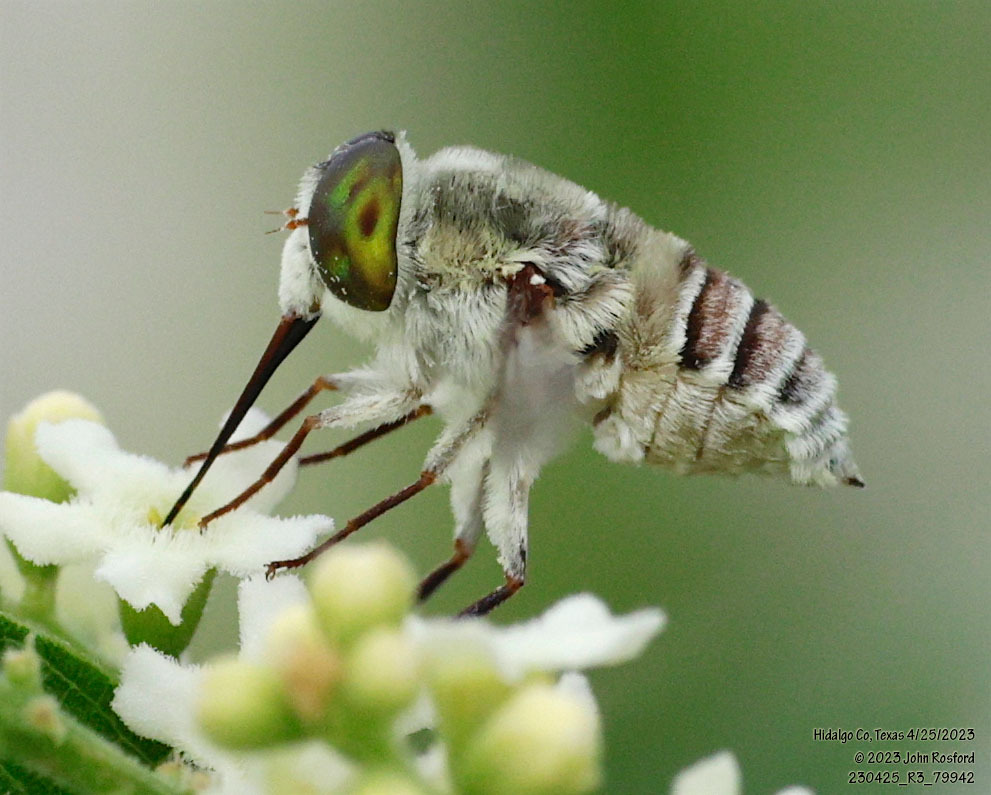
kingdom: Animalia
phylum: Arthropoda
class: Insecta
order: Diptera
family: Nemestrinidae
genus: Neorhynchocephalus
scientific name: Neorhynchocephalus volaticus
